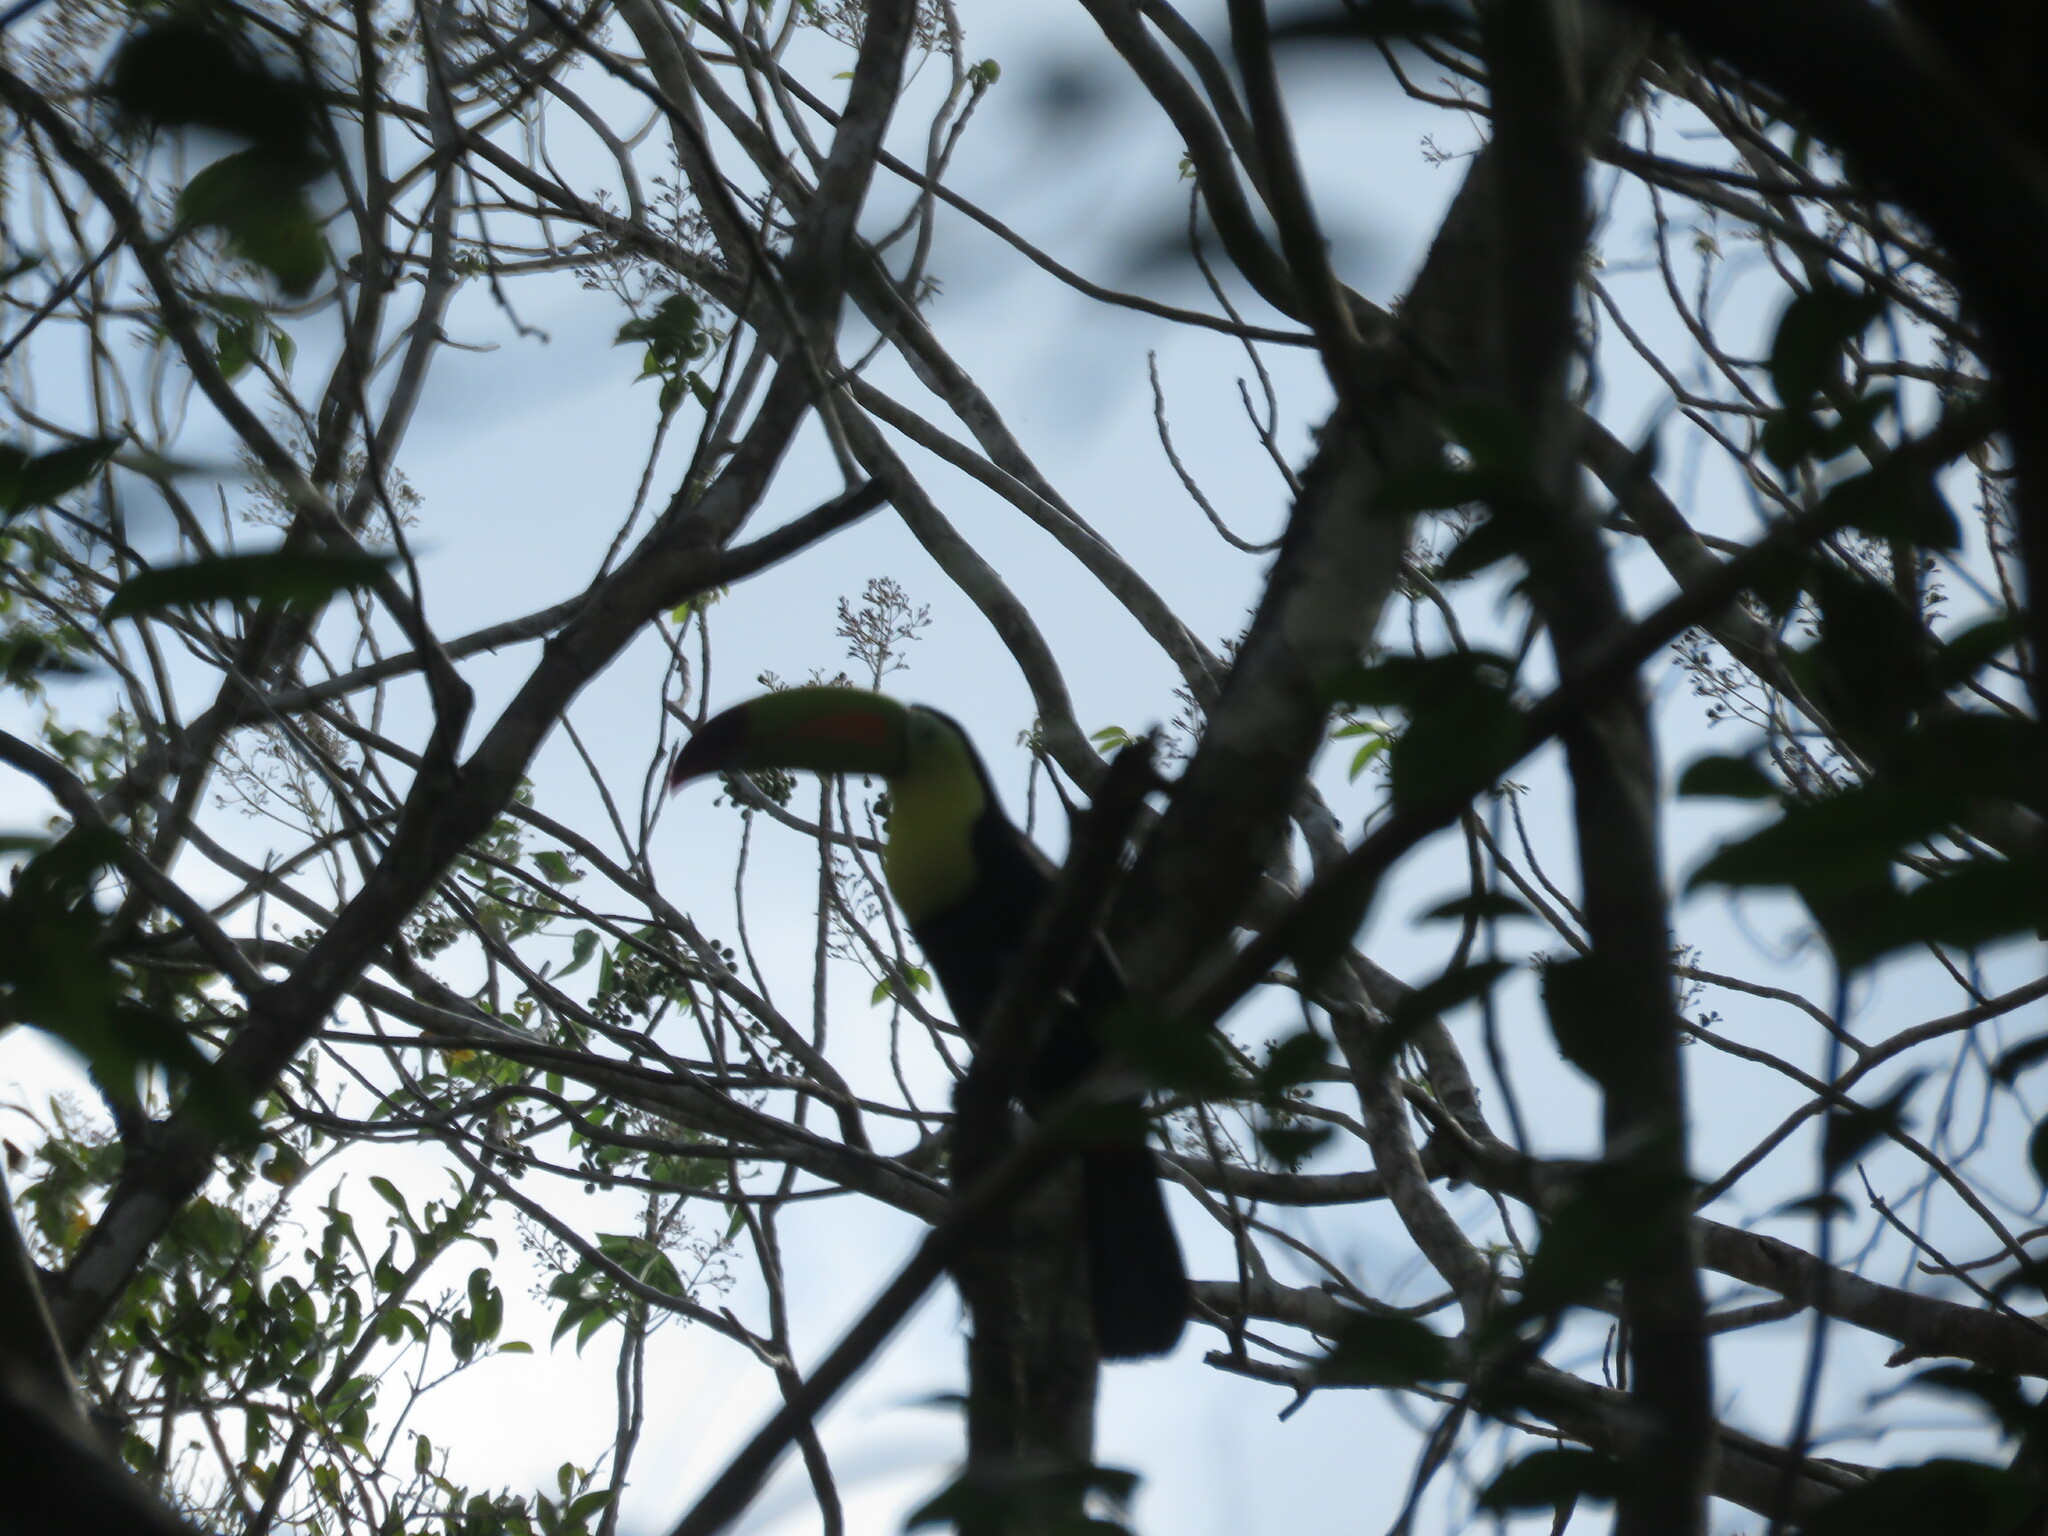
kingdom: Animalia
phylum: Chordata
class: Aves
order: Piciformes
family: Ramphastidae
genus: Ramphastos
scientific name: Ramphastos sulfuratus
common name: Keel-billed toucan
